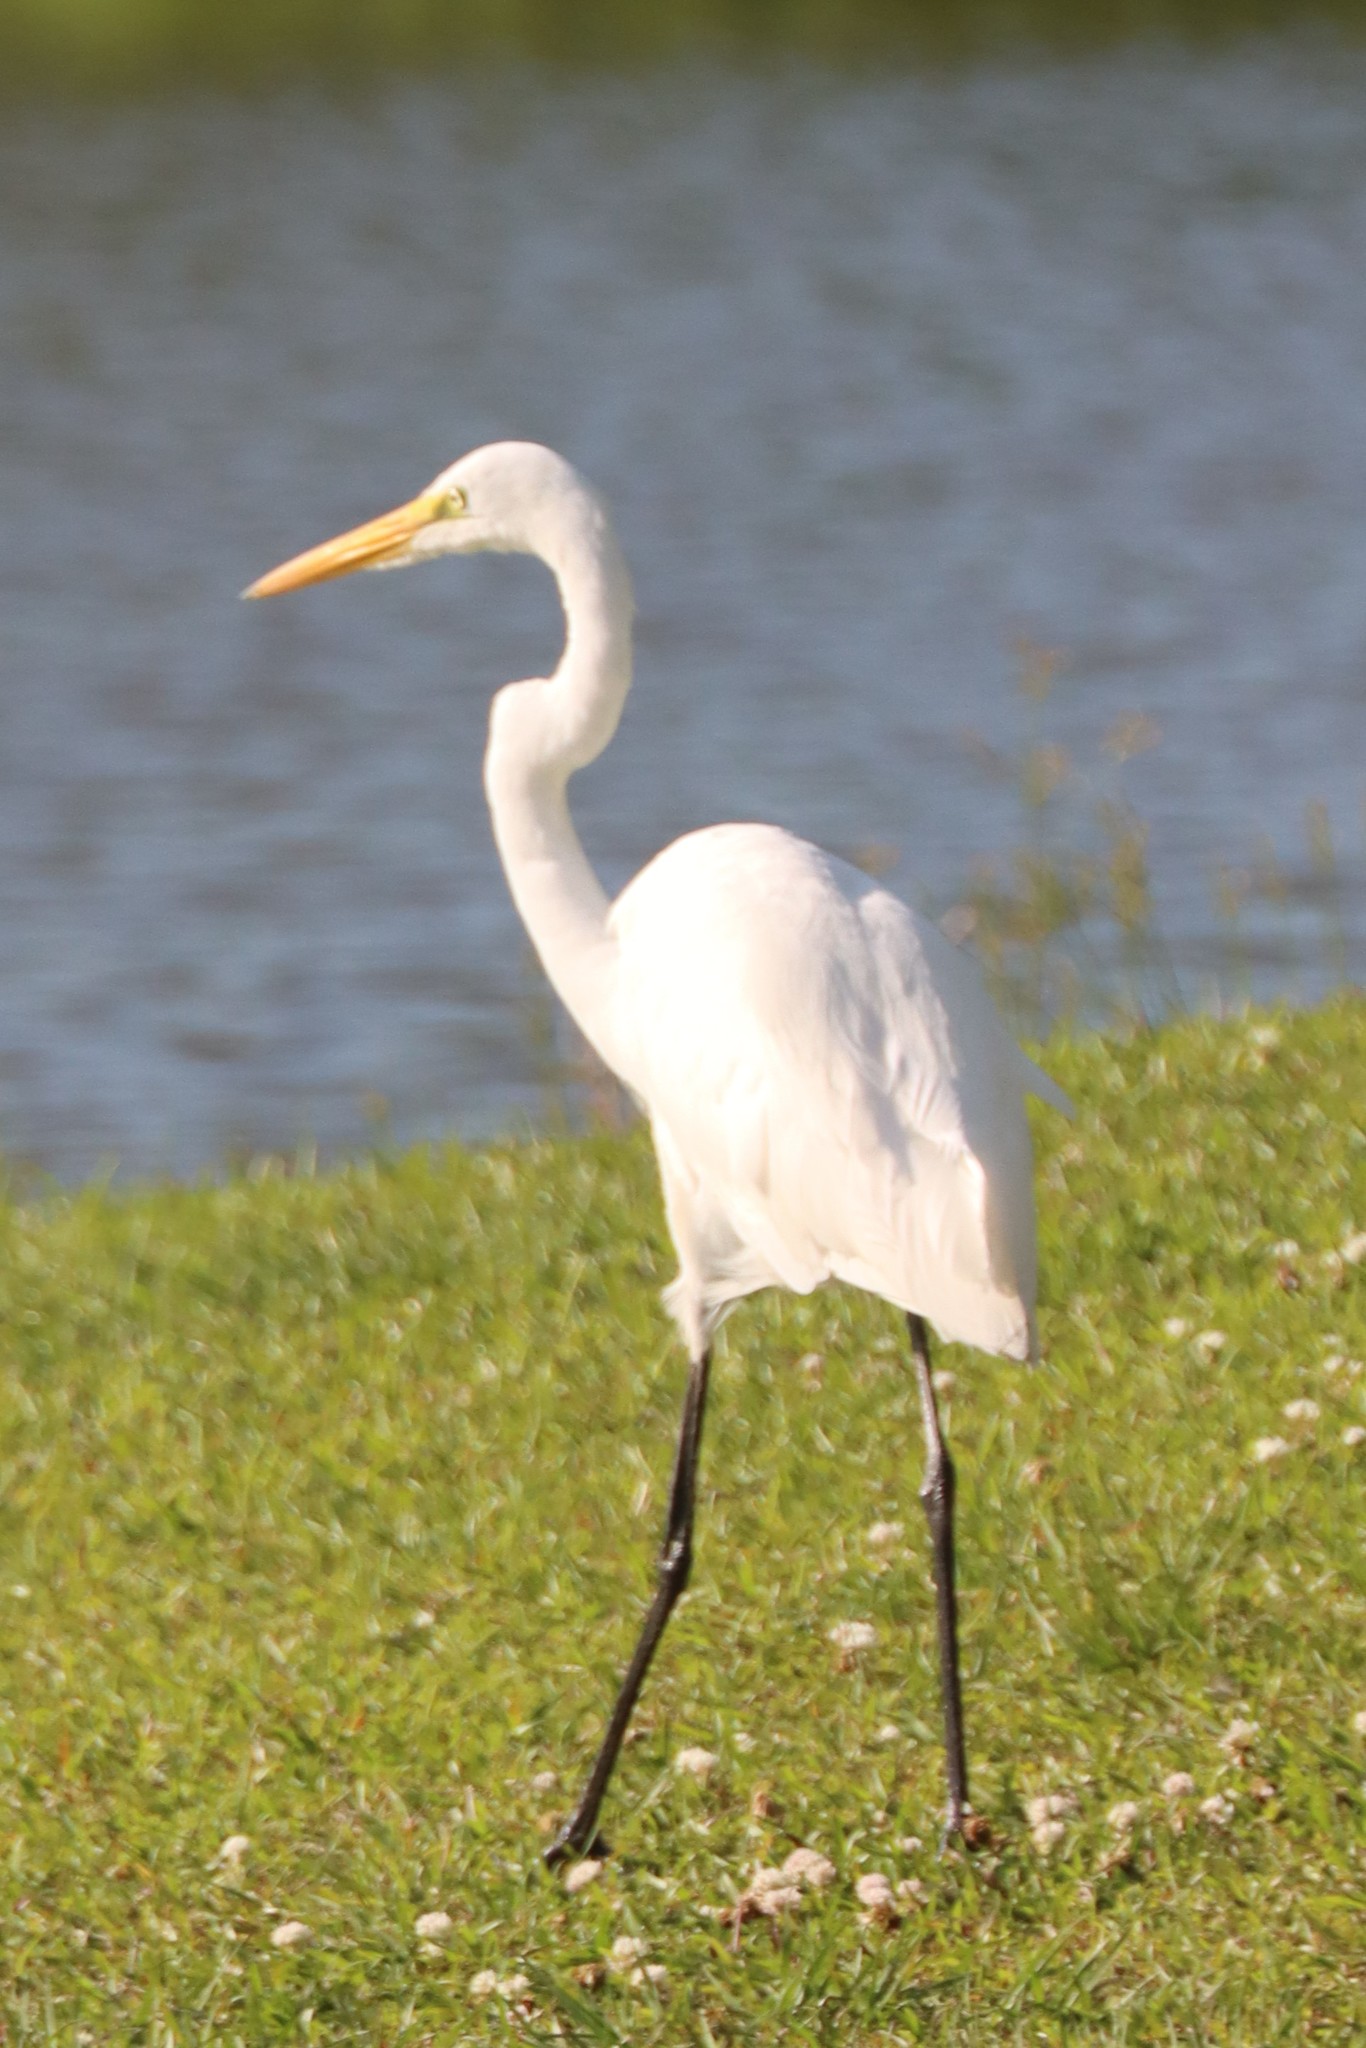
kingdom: Animalia
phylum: Chordata
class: Aves
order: Pelecaniformes
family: Ardeidae
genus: Ardea
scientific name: Ardea alba
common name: Great egret
